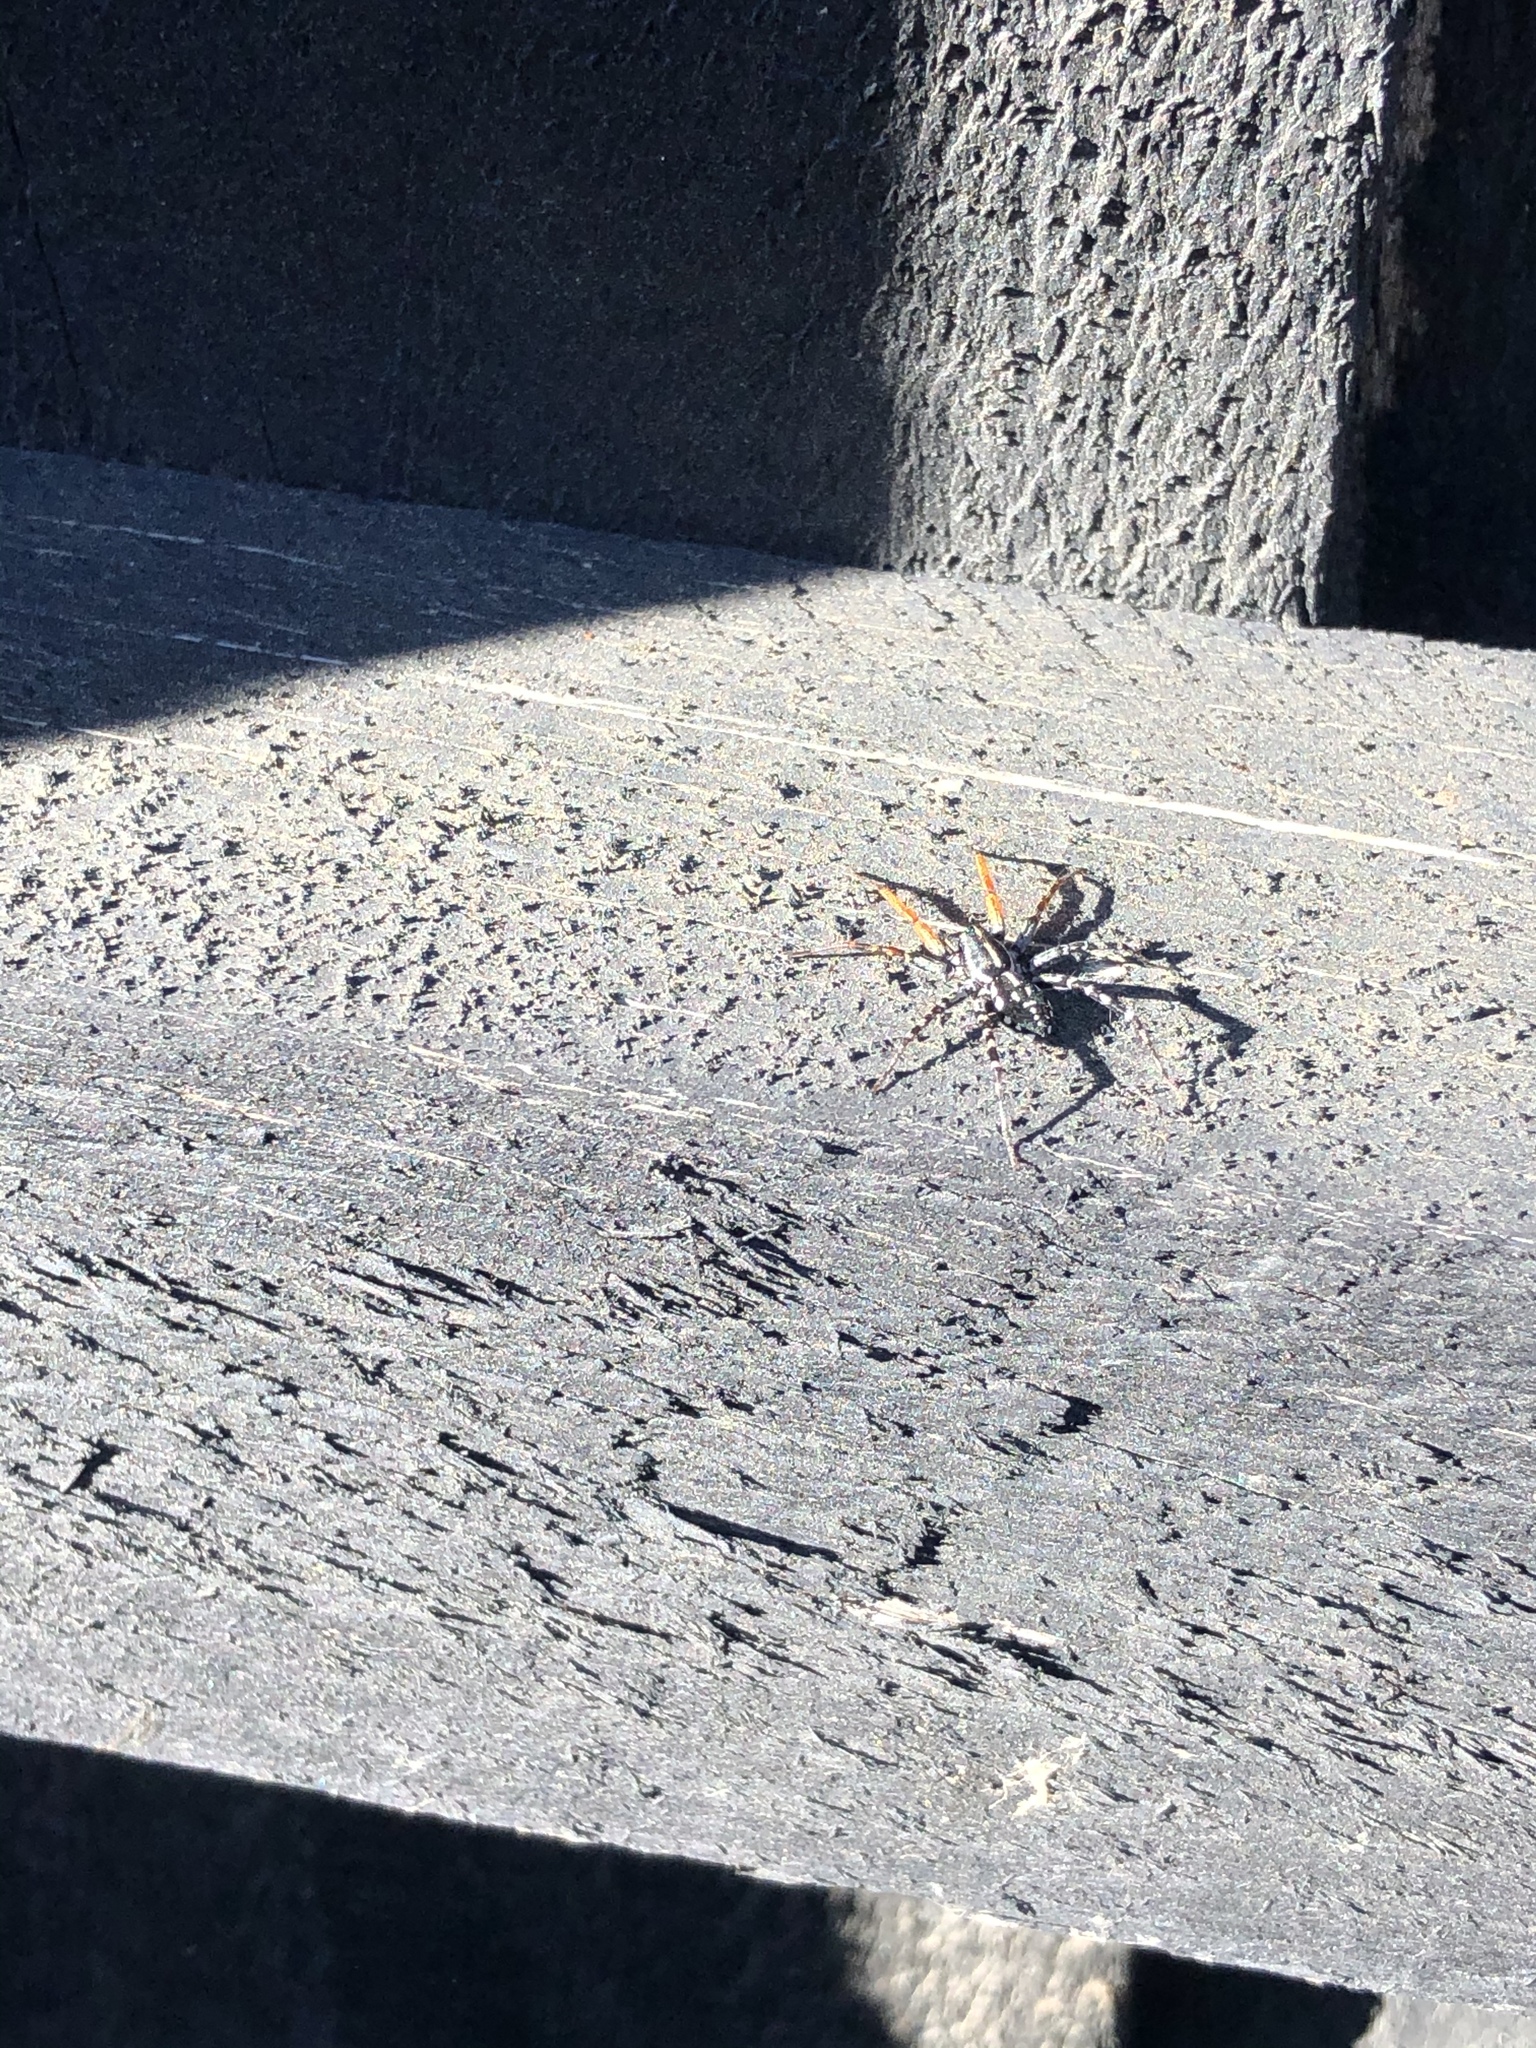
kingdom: Animalia
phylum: Arthropoda
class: Arachnida
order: Araneae
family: Corinnidae
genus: Nyssus
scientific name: Nyssus coloripes
